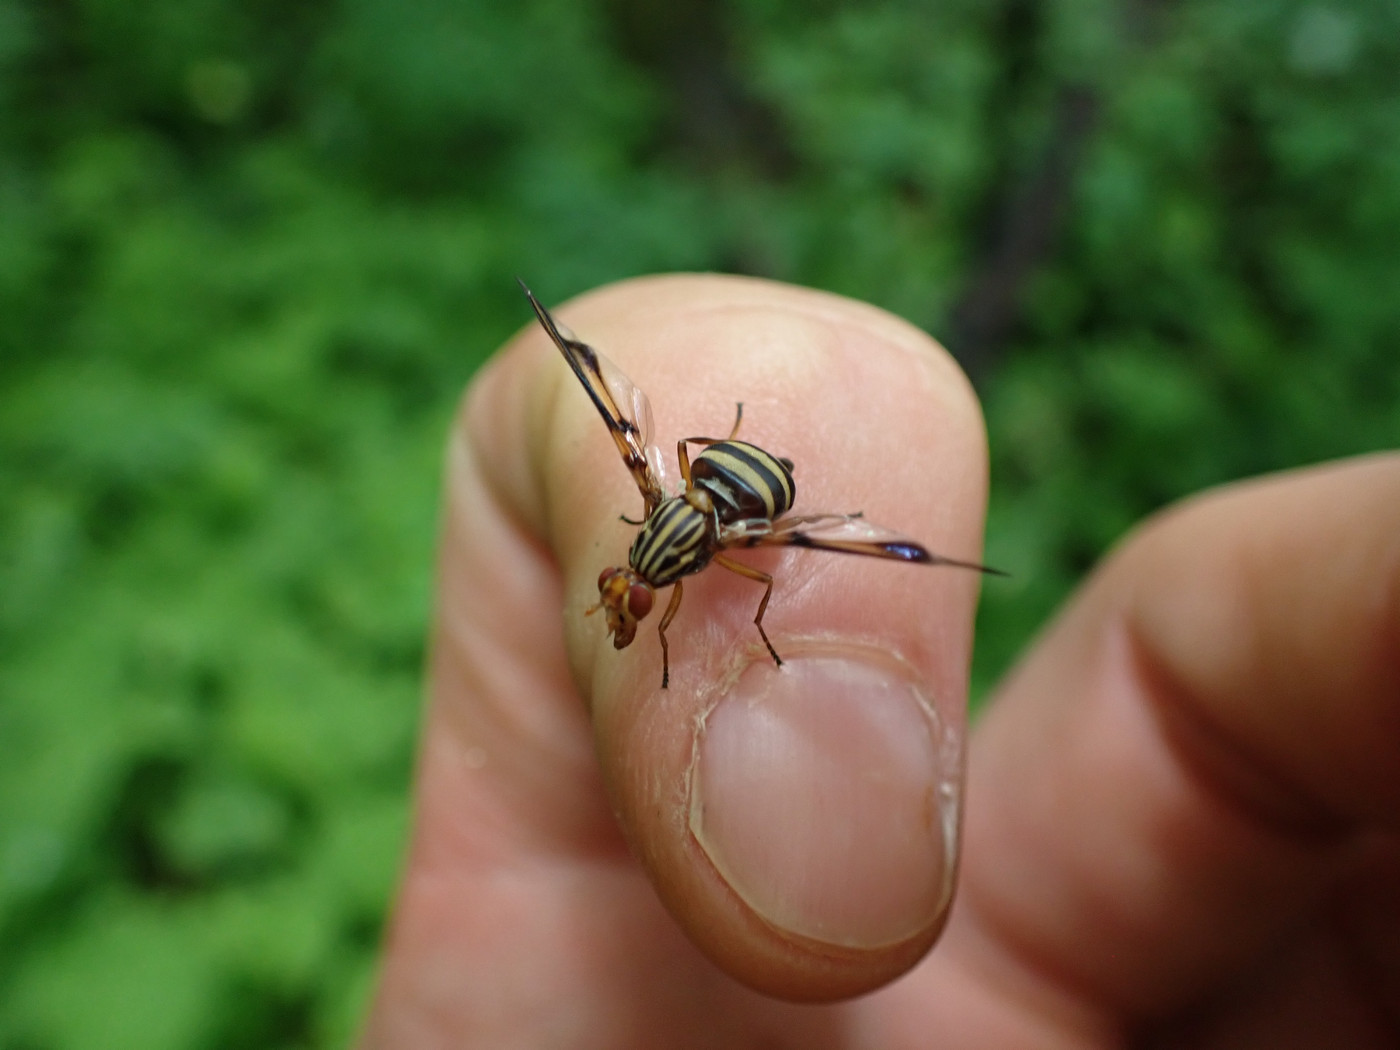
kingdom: Animalia
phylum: Arthropoda
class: Insecta
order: Diptera
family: Ulidiidae
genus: Idana
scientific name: Idana marginata
